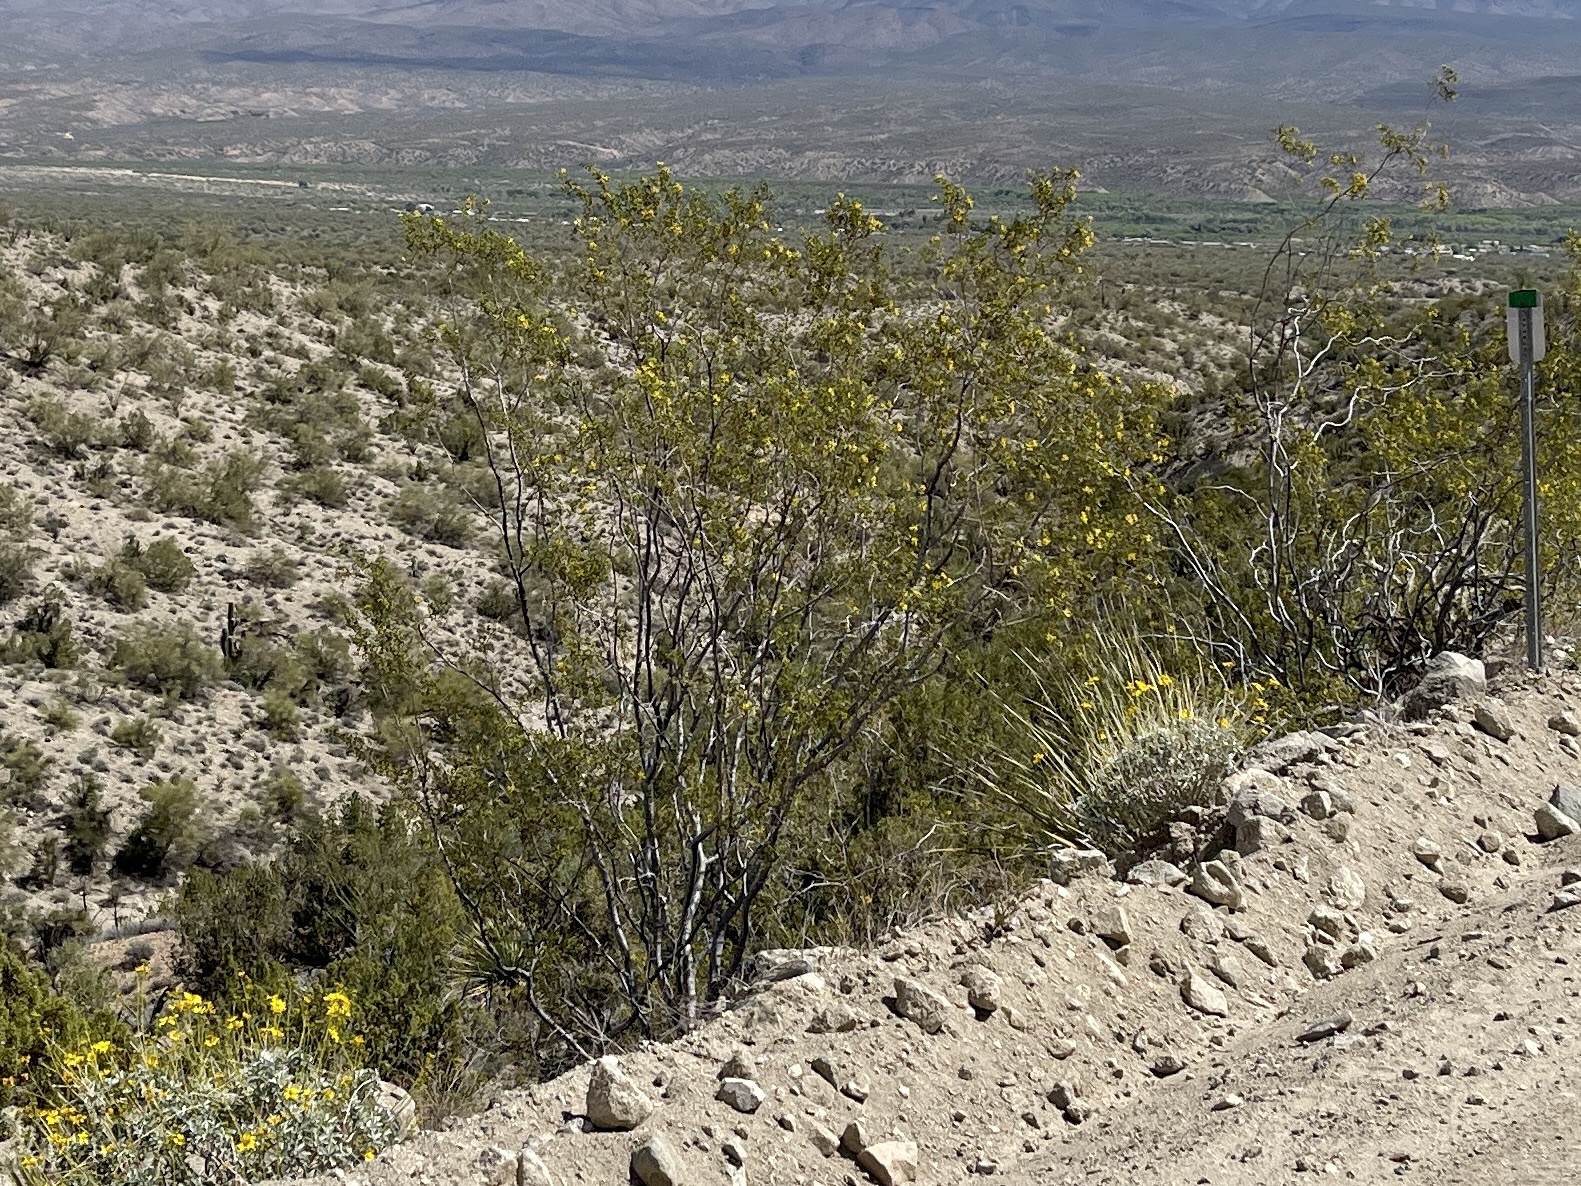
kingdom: Plantae
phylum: Tracheophyta
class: Magnoliopsida
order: Zygophyllales
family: Zygophyllaceae
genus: Larrea
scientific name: Larrea tridentata
